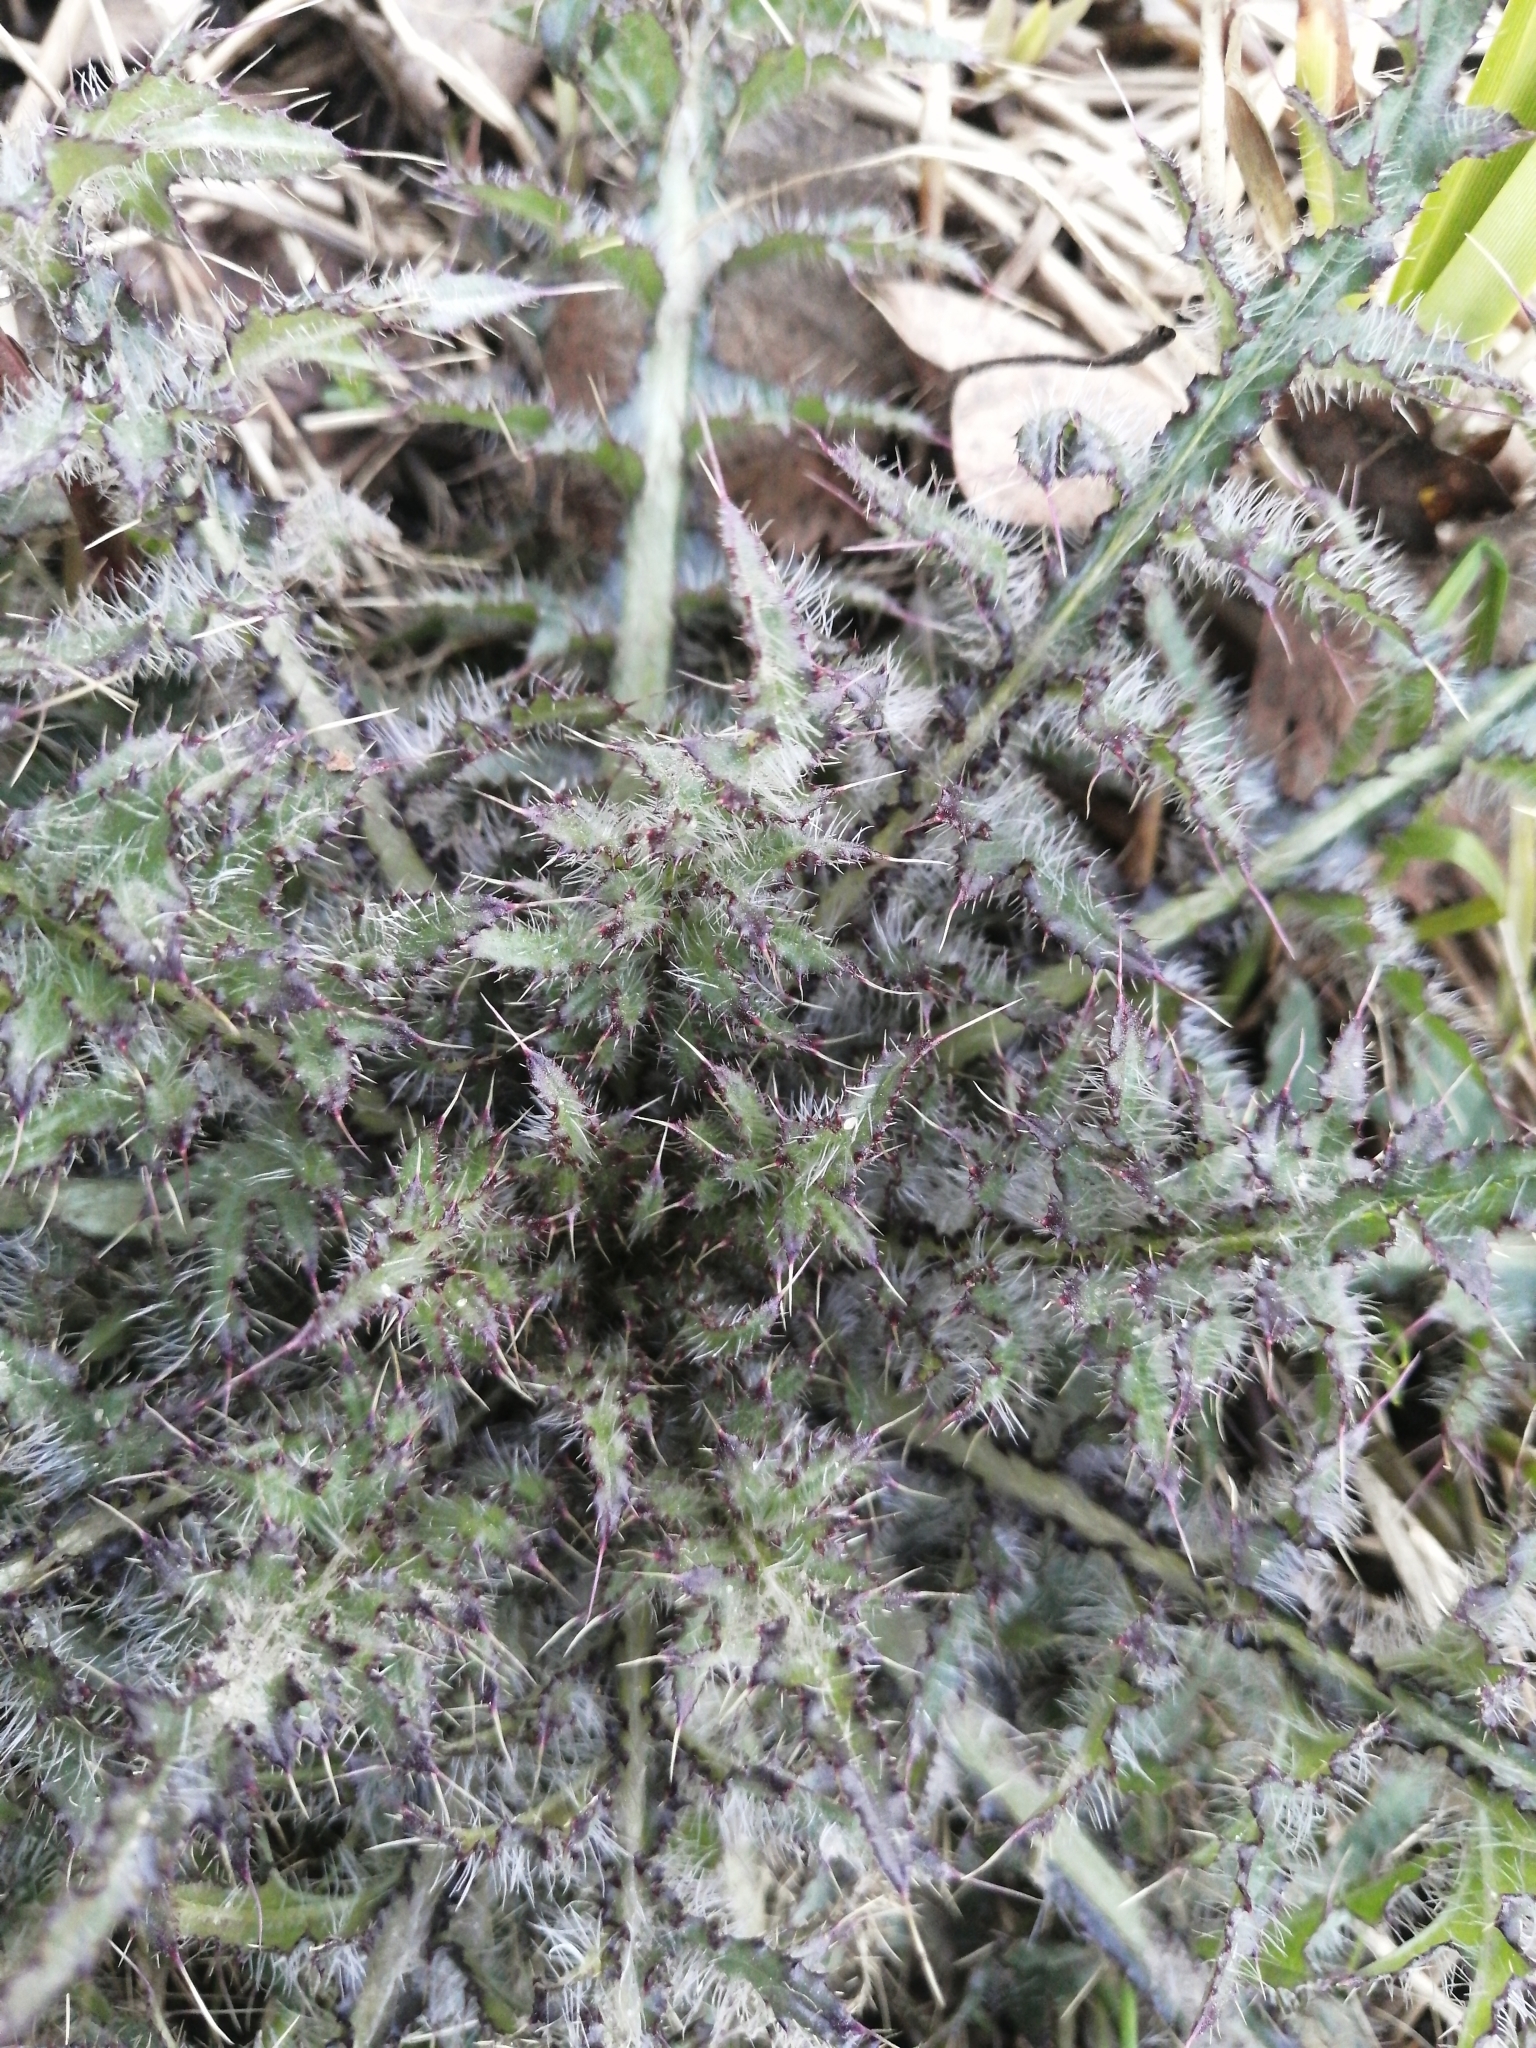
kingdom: Plantae
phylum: Tracheophyta
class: Magnoliopsida
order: Asterales
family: Asteraceae
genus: Cirsium
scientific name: Cirsium palustre
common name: Marsh thistle
